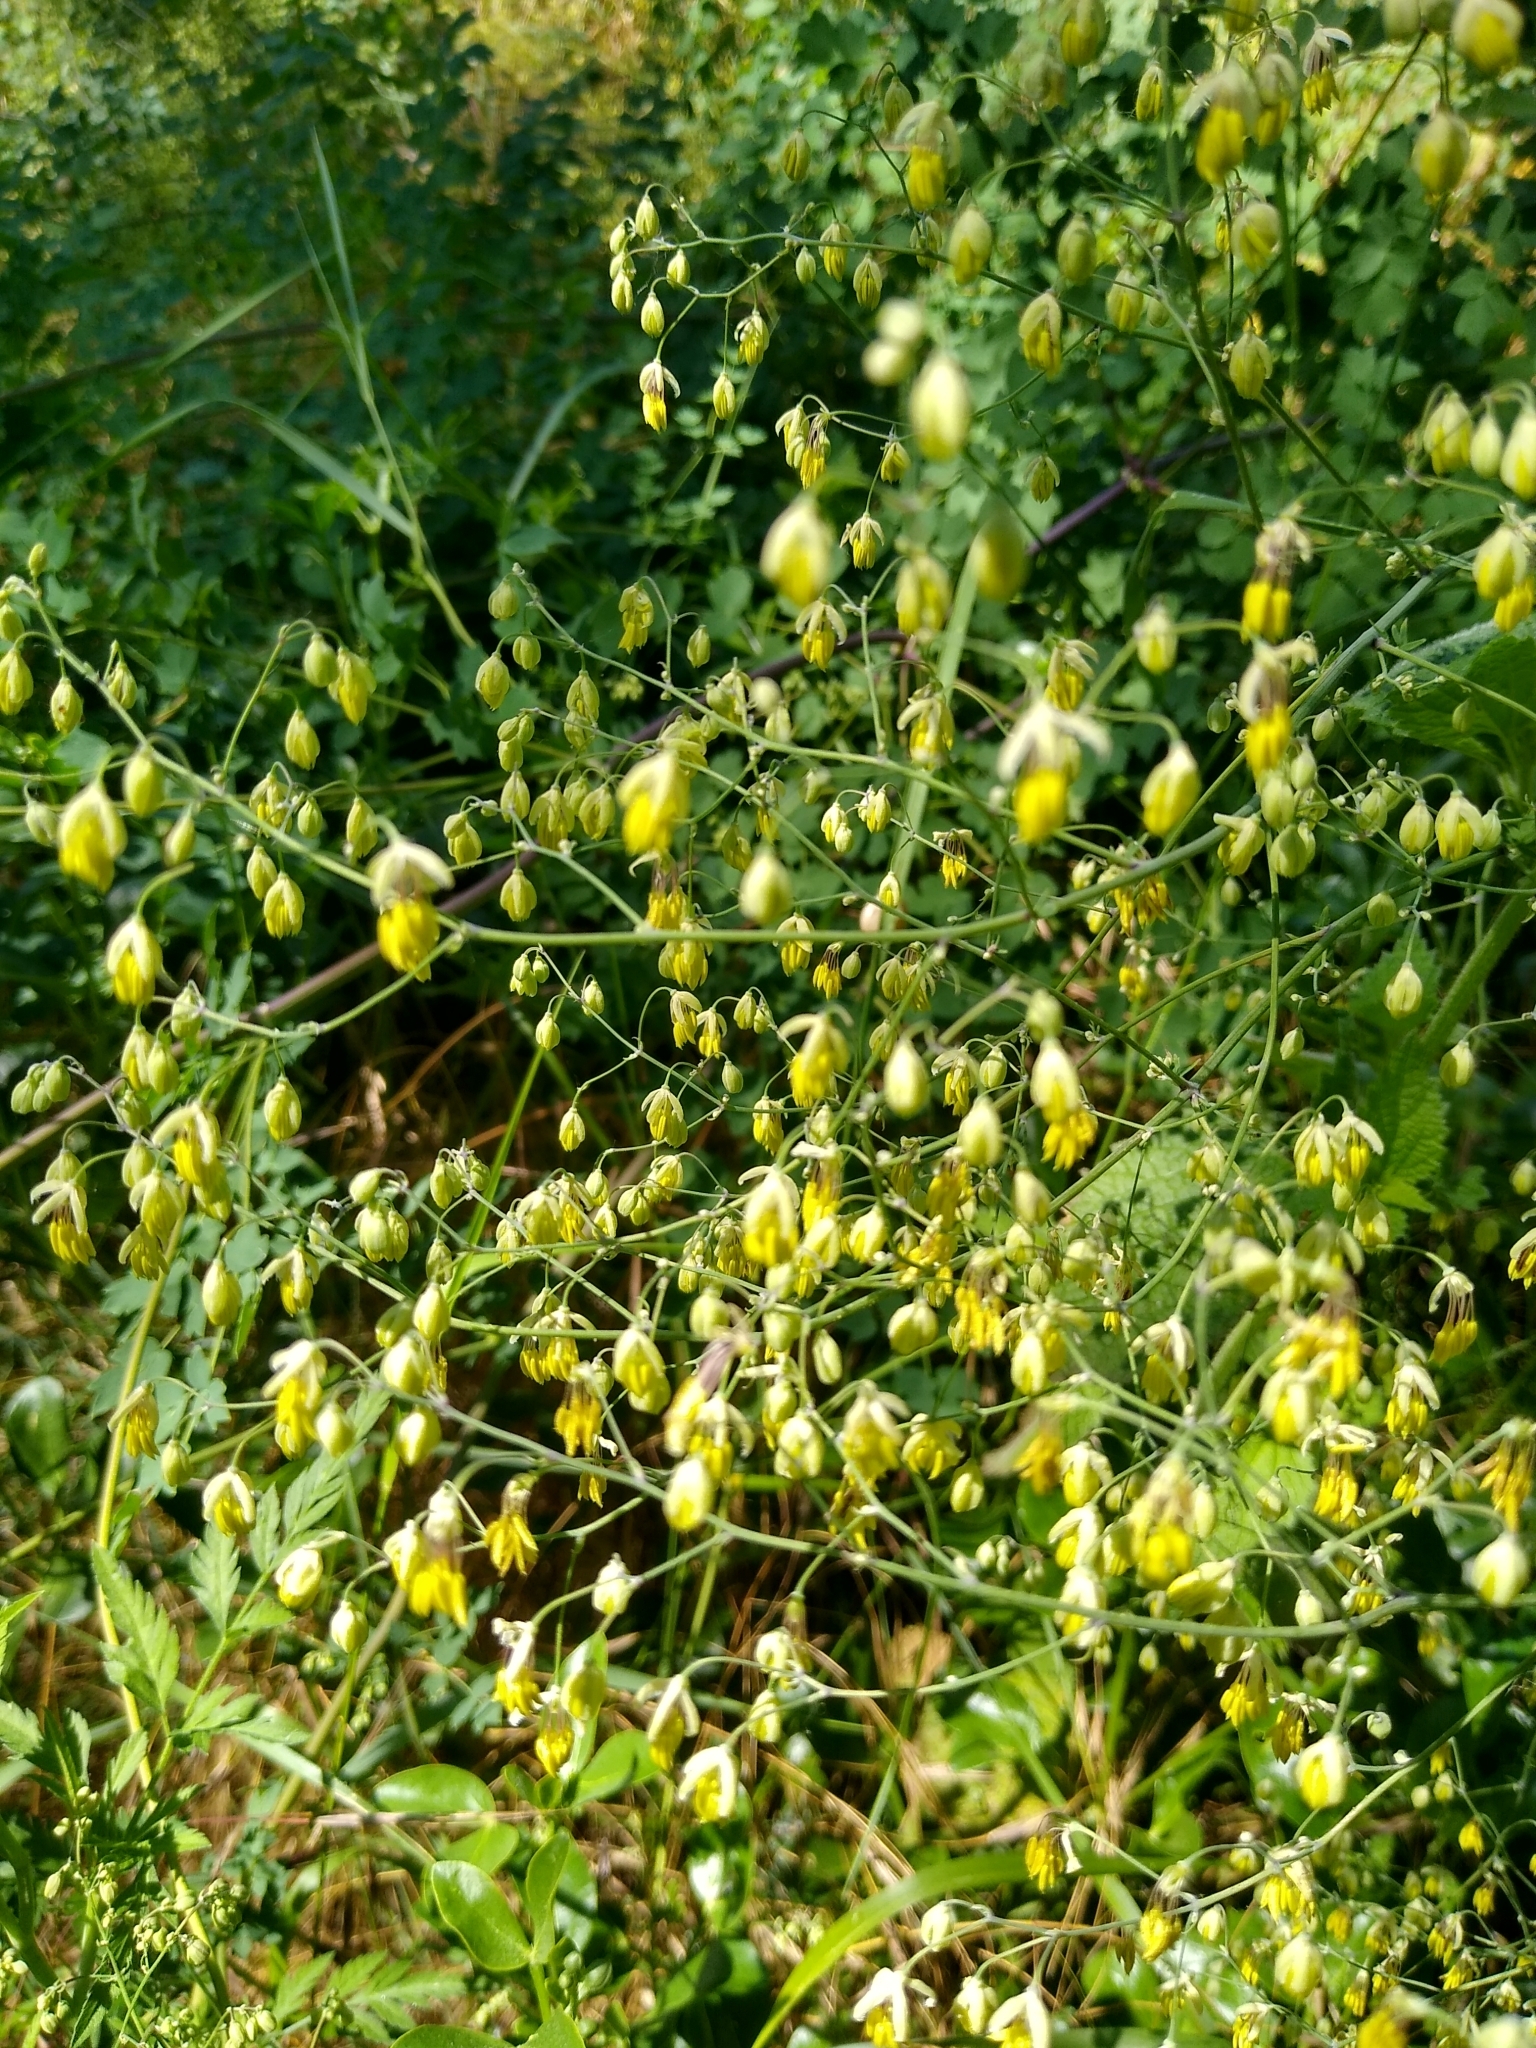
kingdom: Plantae
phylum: Tracheophyta
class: Magnoliopsida
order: Ranunculales
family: Ranunculaceae
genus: Thalictrum
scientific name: Thalictrum minus
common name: Lesser meadow-rue
